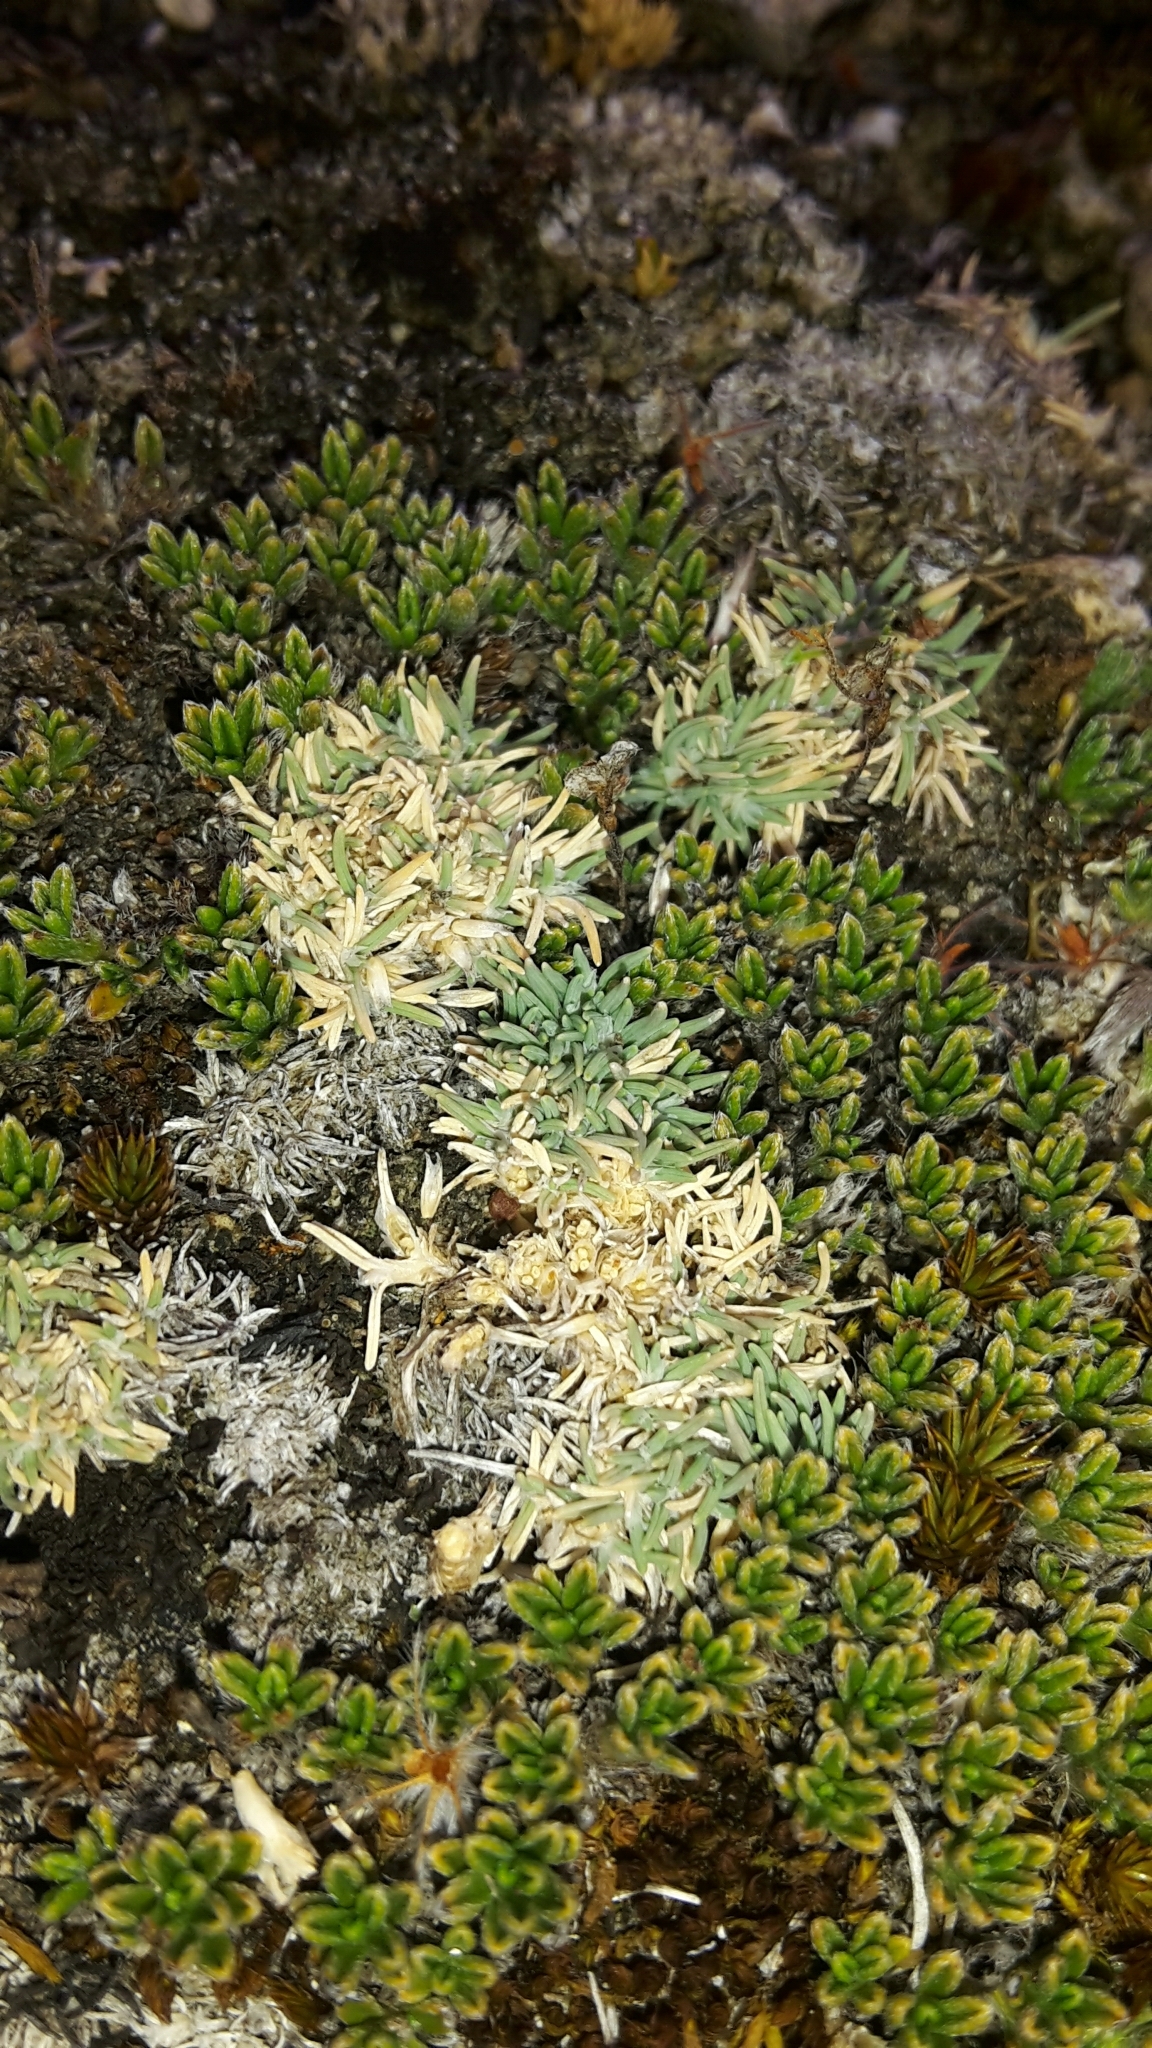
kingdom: Plantae
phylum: Tracheophyta
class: Liliopsida
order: Poales
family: Poaceae
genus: Agrostis
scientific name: Agrostis muscosa
